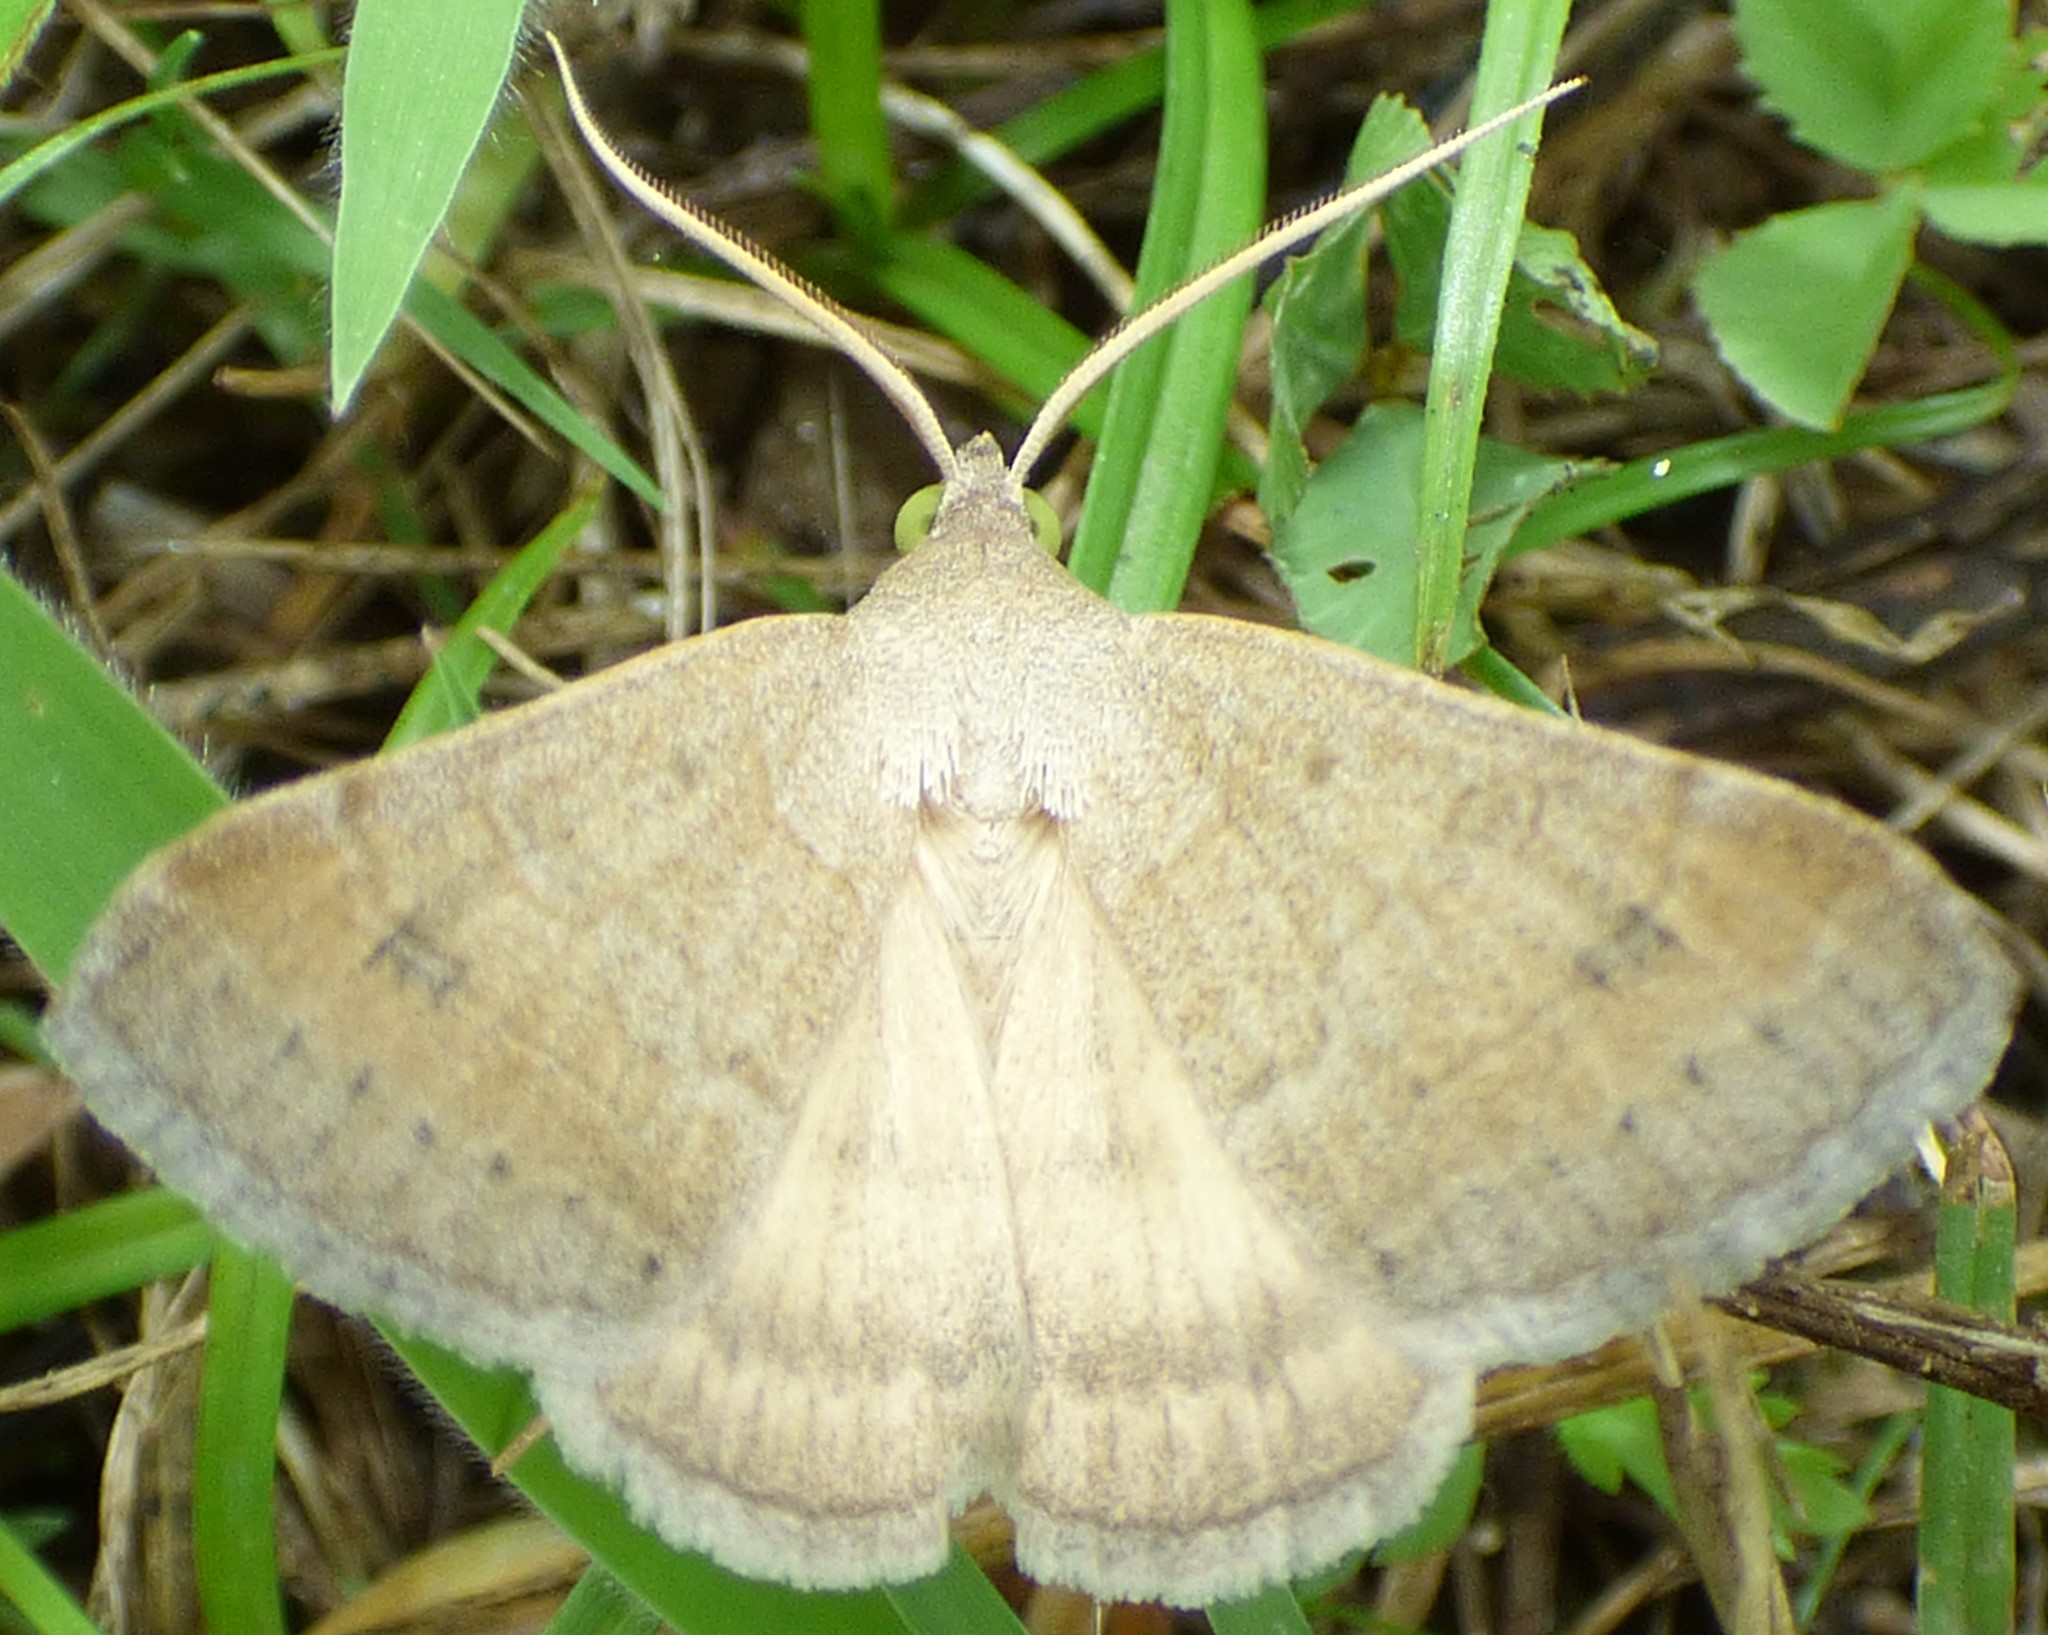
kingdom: Animalia
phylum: Arthropoda
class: Insecta
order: Lepidoptera
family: Erebidae
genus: Caenurgia
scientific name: Caenurgia chloropha
